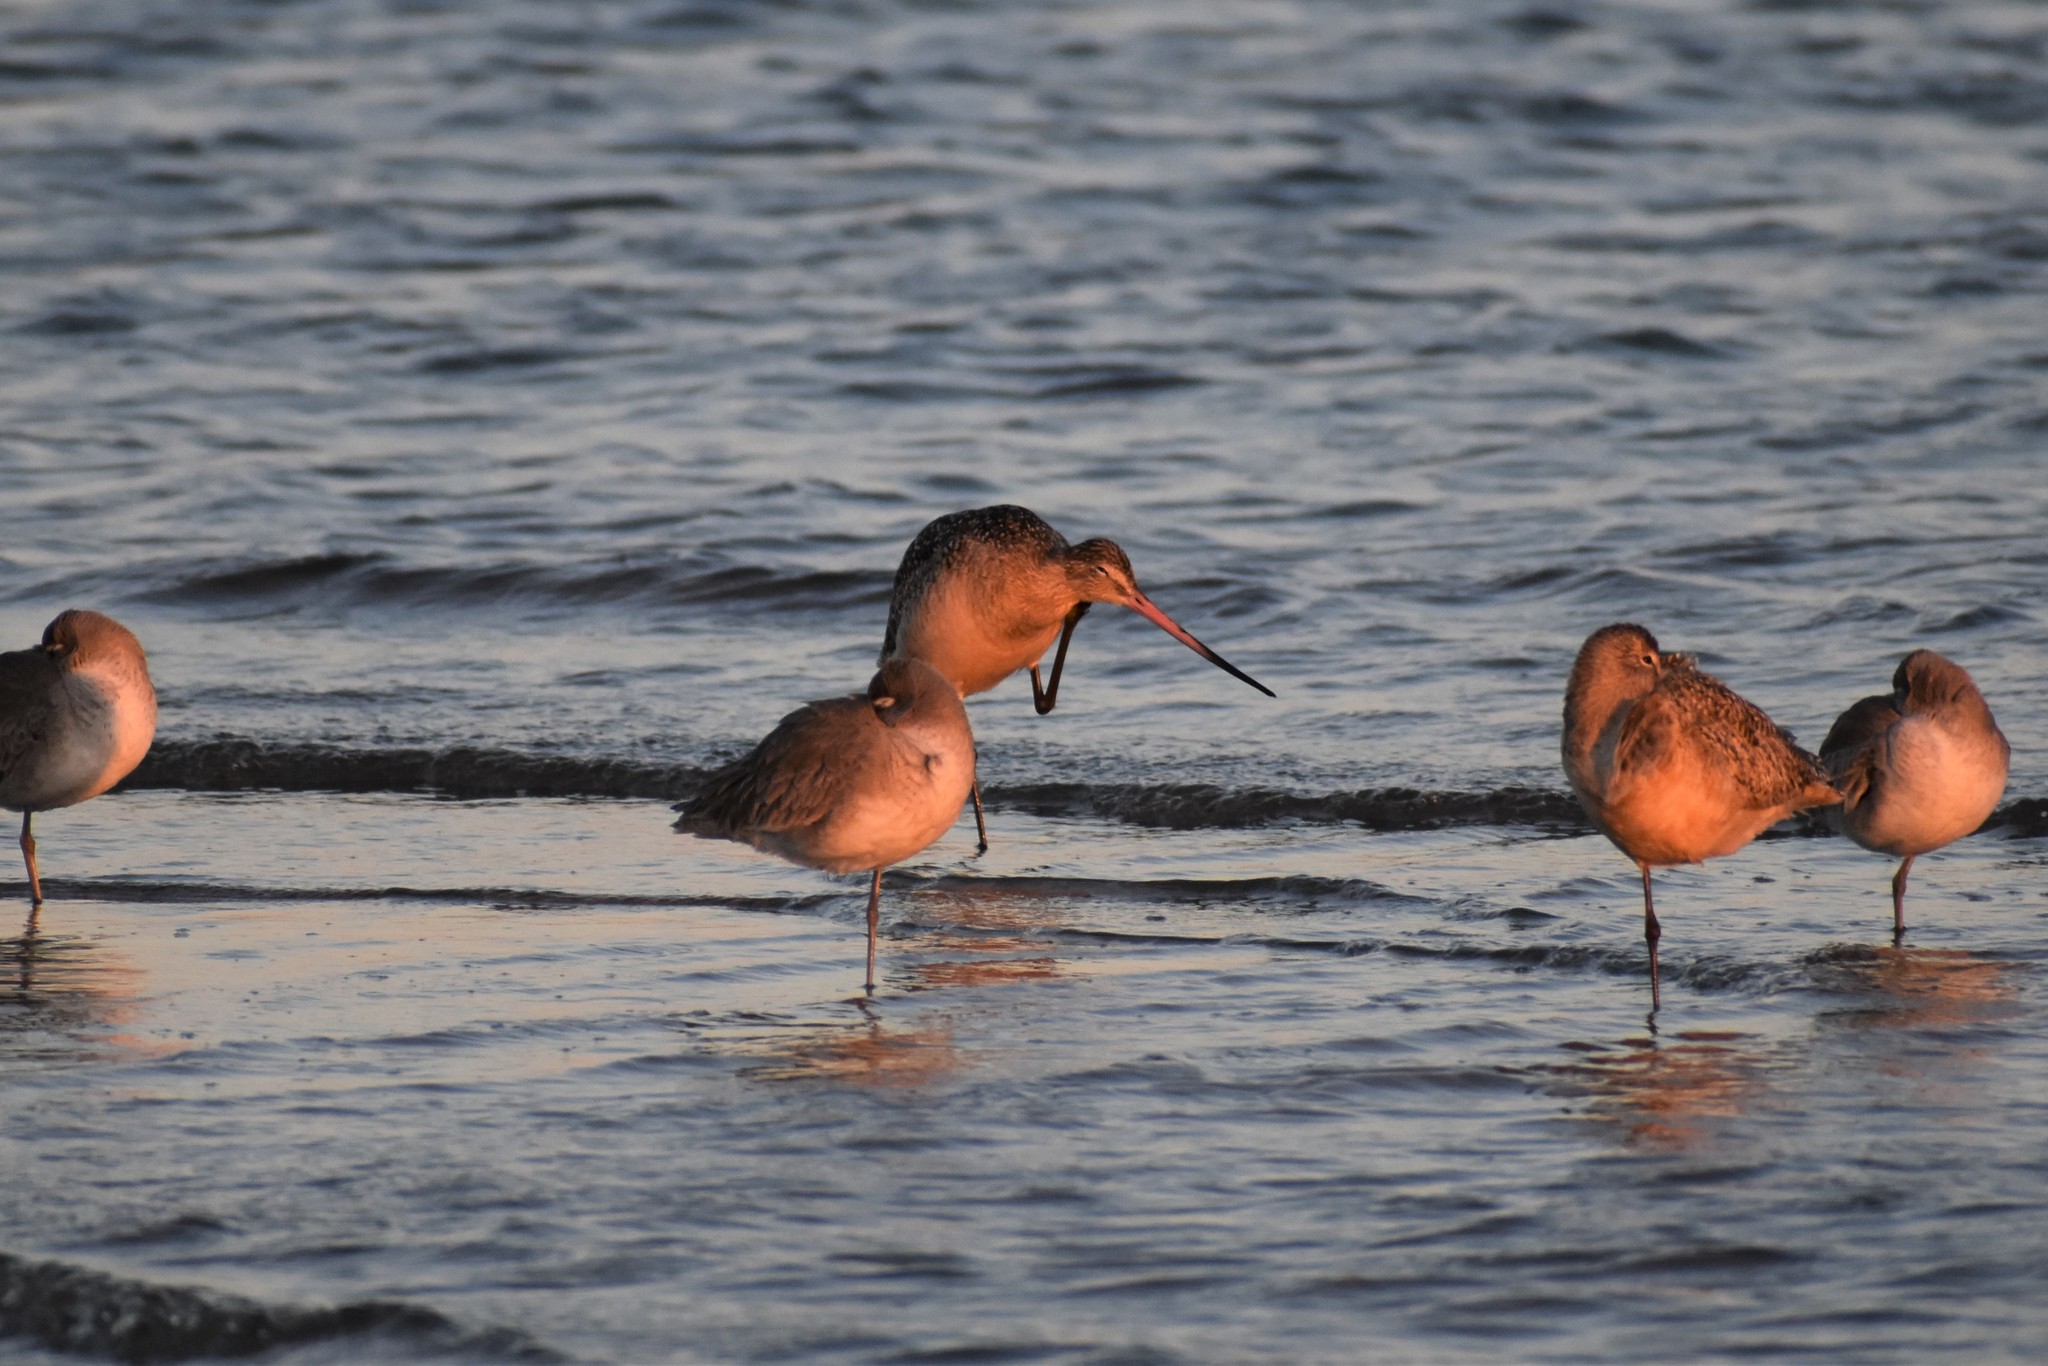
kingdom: Animalia
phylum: Chordata
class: Aves
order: Charadriiformes
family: Scolopacidae
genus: Limosa
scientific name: Limosa fedoa
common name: Marbled godwit
